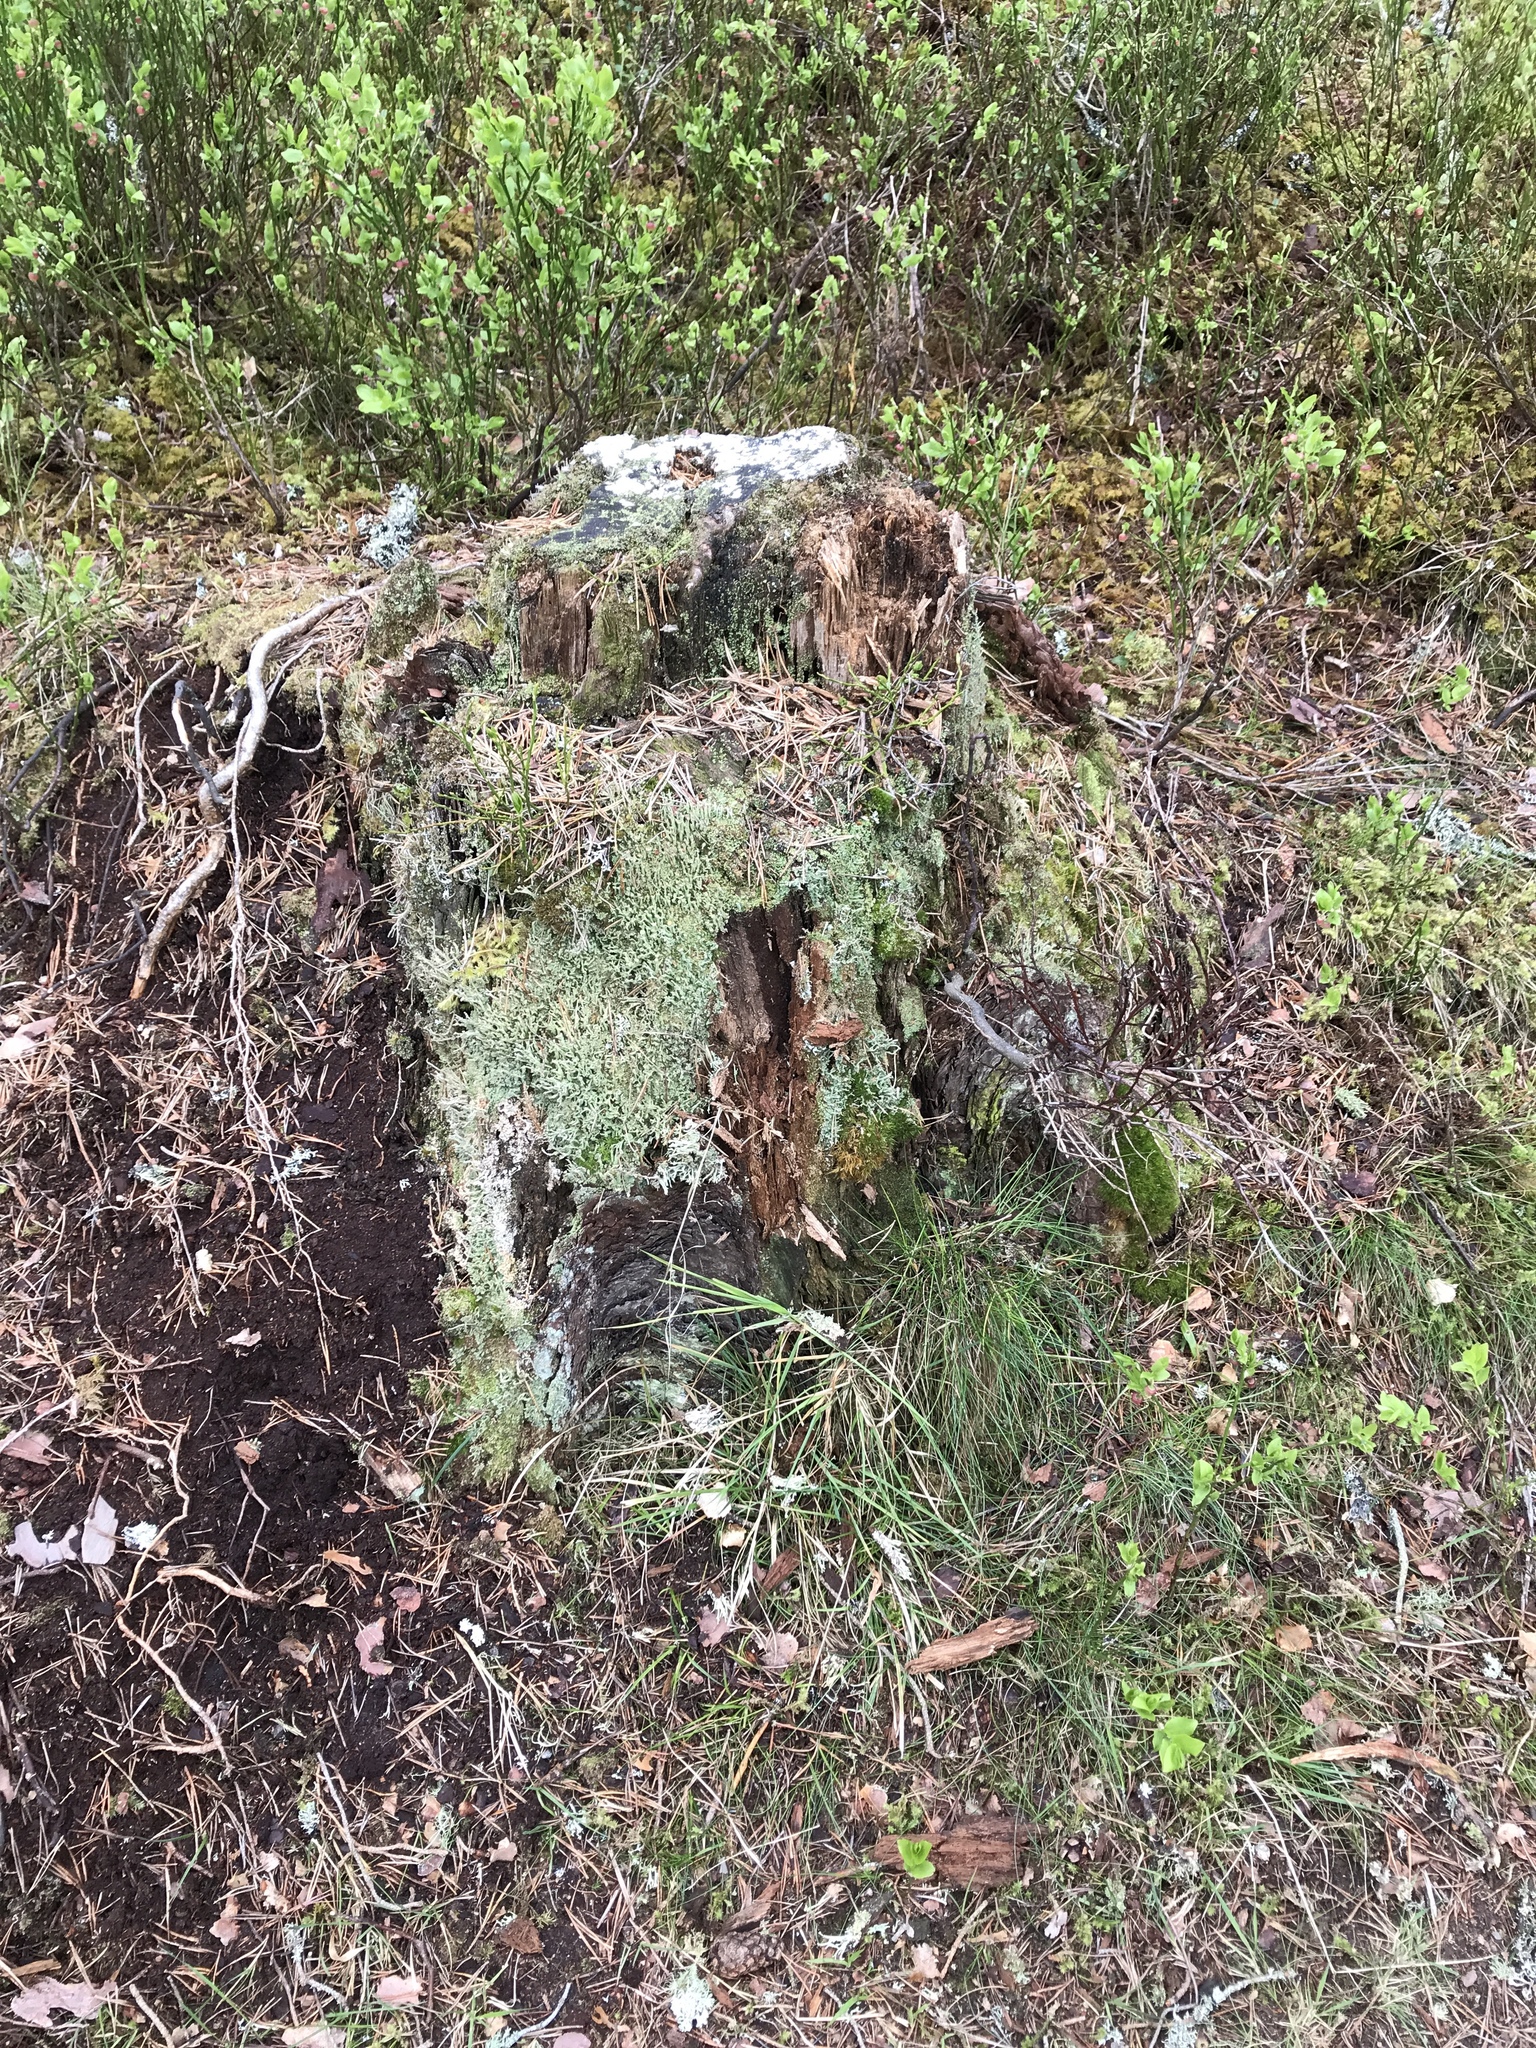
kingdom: Fungi
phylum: Ascomycota
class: Lecanoromycetes
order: Lecanorales
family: Cladoniaceae
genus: Cladonia
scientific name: Cladonia cenotea
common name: Powdered funnel lichen
